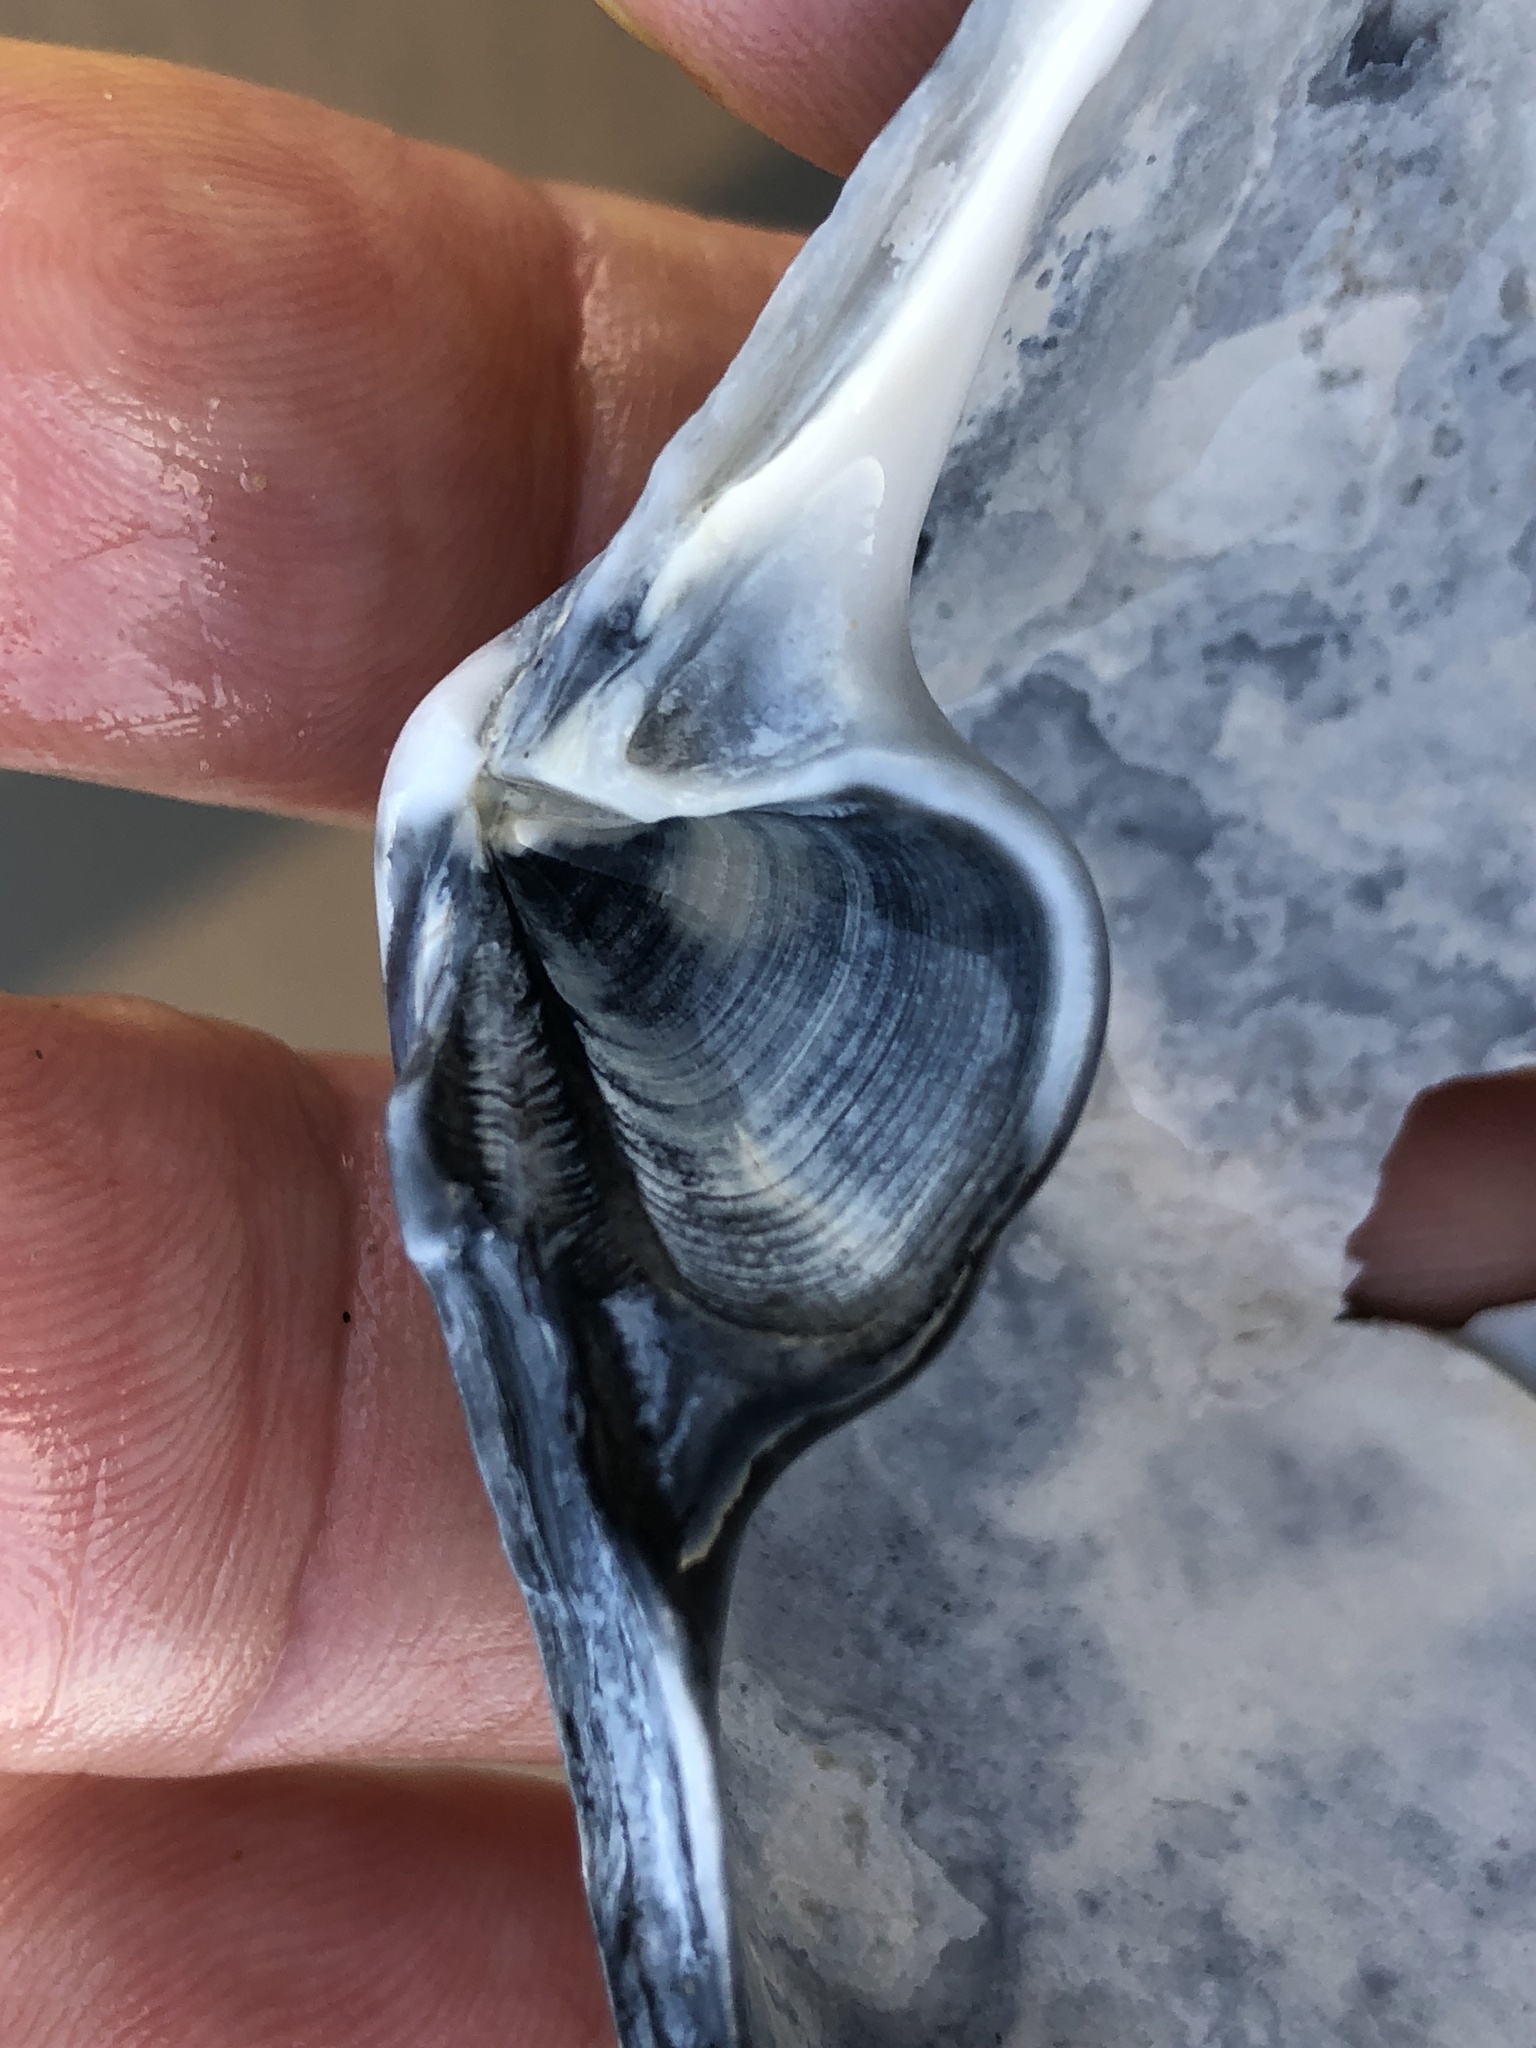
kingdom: Animalia
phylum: Mollusca
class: Bivalvia
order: Venerida
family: Mactridae
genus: Mactromeris
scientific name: Mactromeris catilliformis
